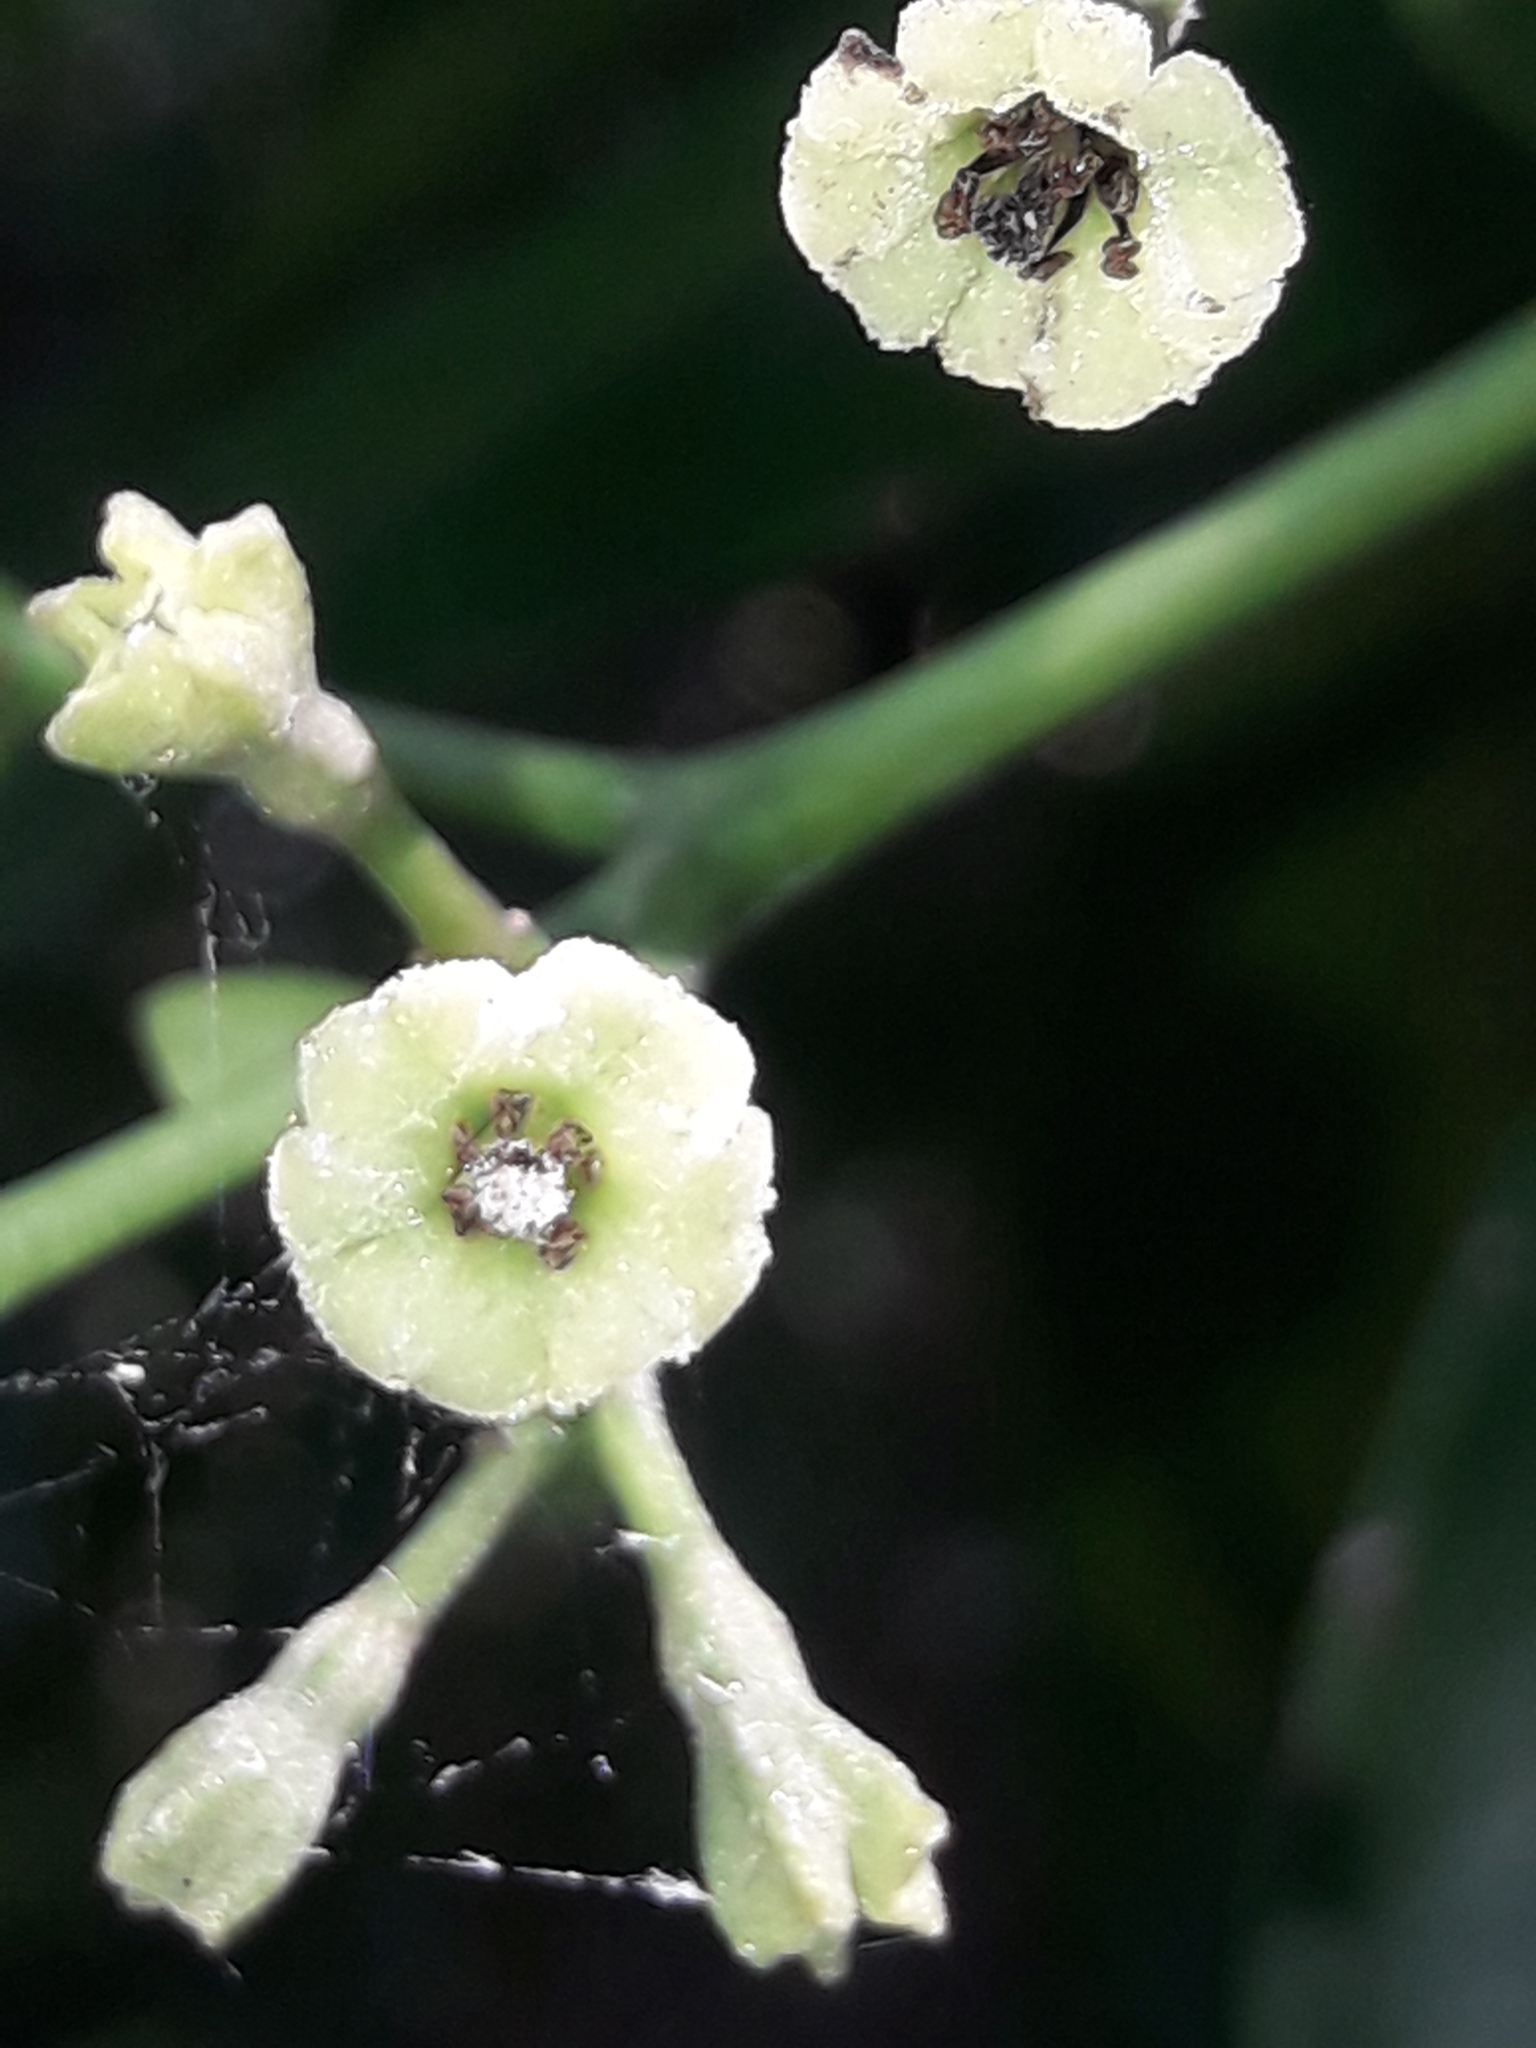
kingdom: Plantae
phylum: Tracheophyta
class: Magnoliopsida
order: Caryophyllales
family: Nyctaginaceae
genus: Ceodes
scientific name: Ceodes brunoniana
